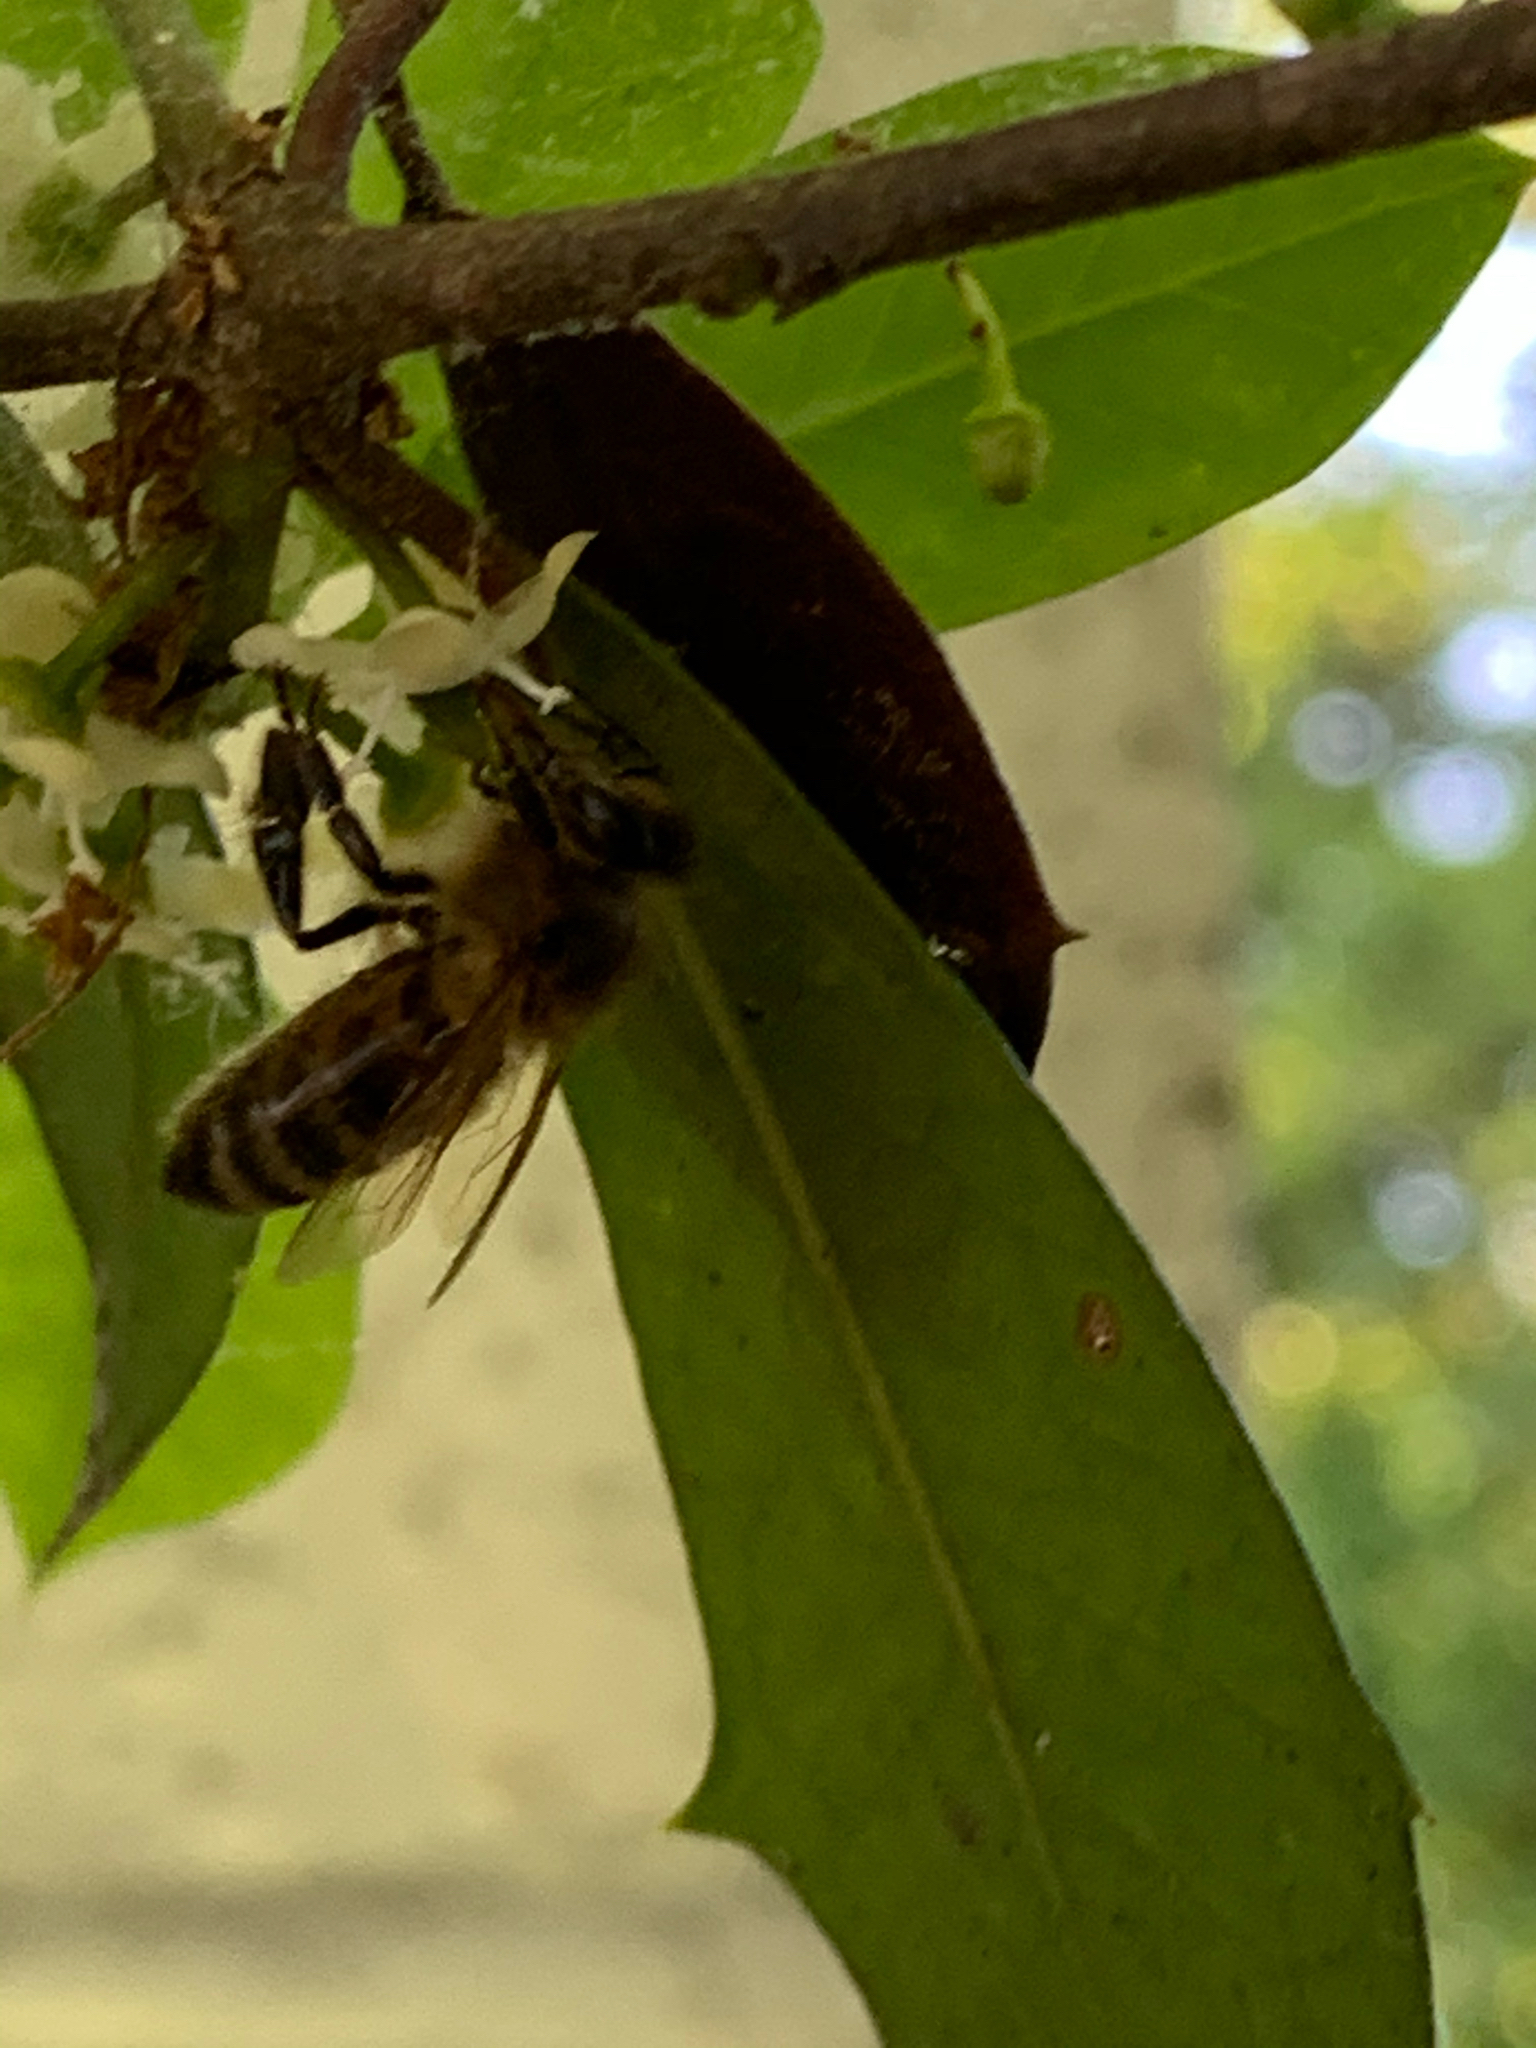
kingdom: Animalia
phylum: Arthropoda
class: Insecta
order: Hymenoptera
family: Apidae
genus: Apis
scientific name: Apis mellifera
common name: Honey bee
